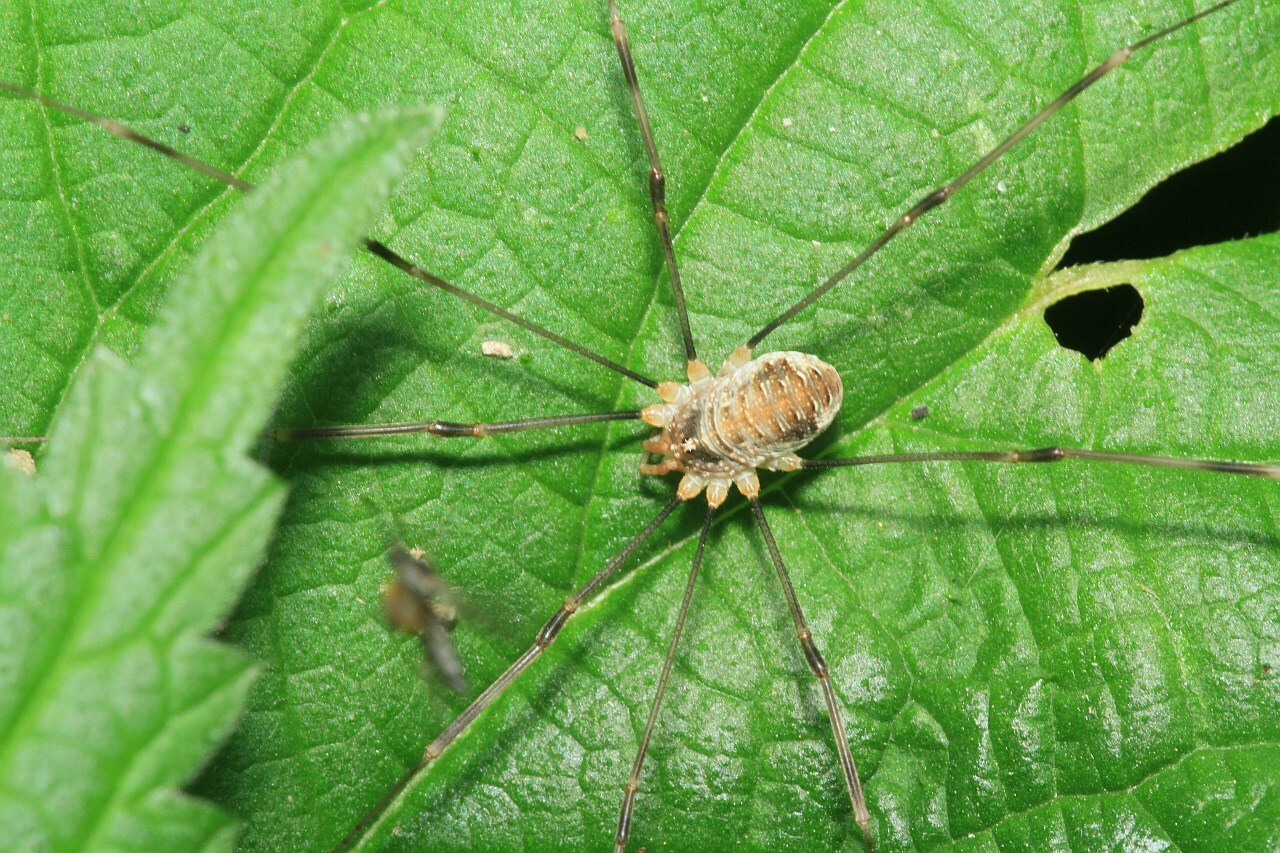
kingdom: Animalia
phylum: Arthropoda
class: Arachnida
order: Opiliones
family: Phalangiidae
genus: Opilio
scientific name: Opilio canestrinii
